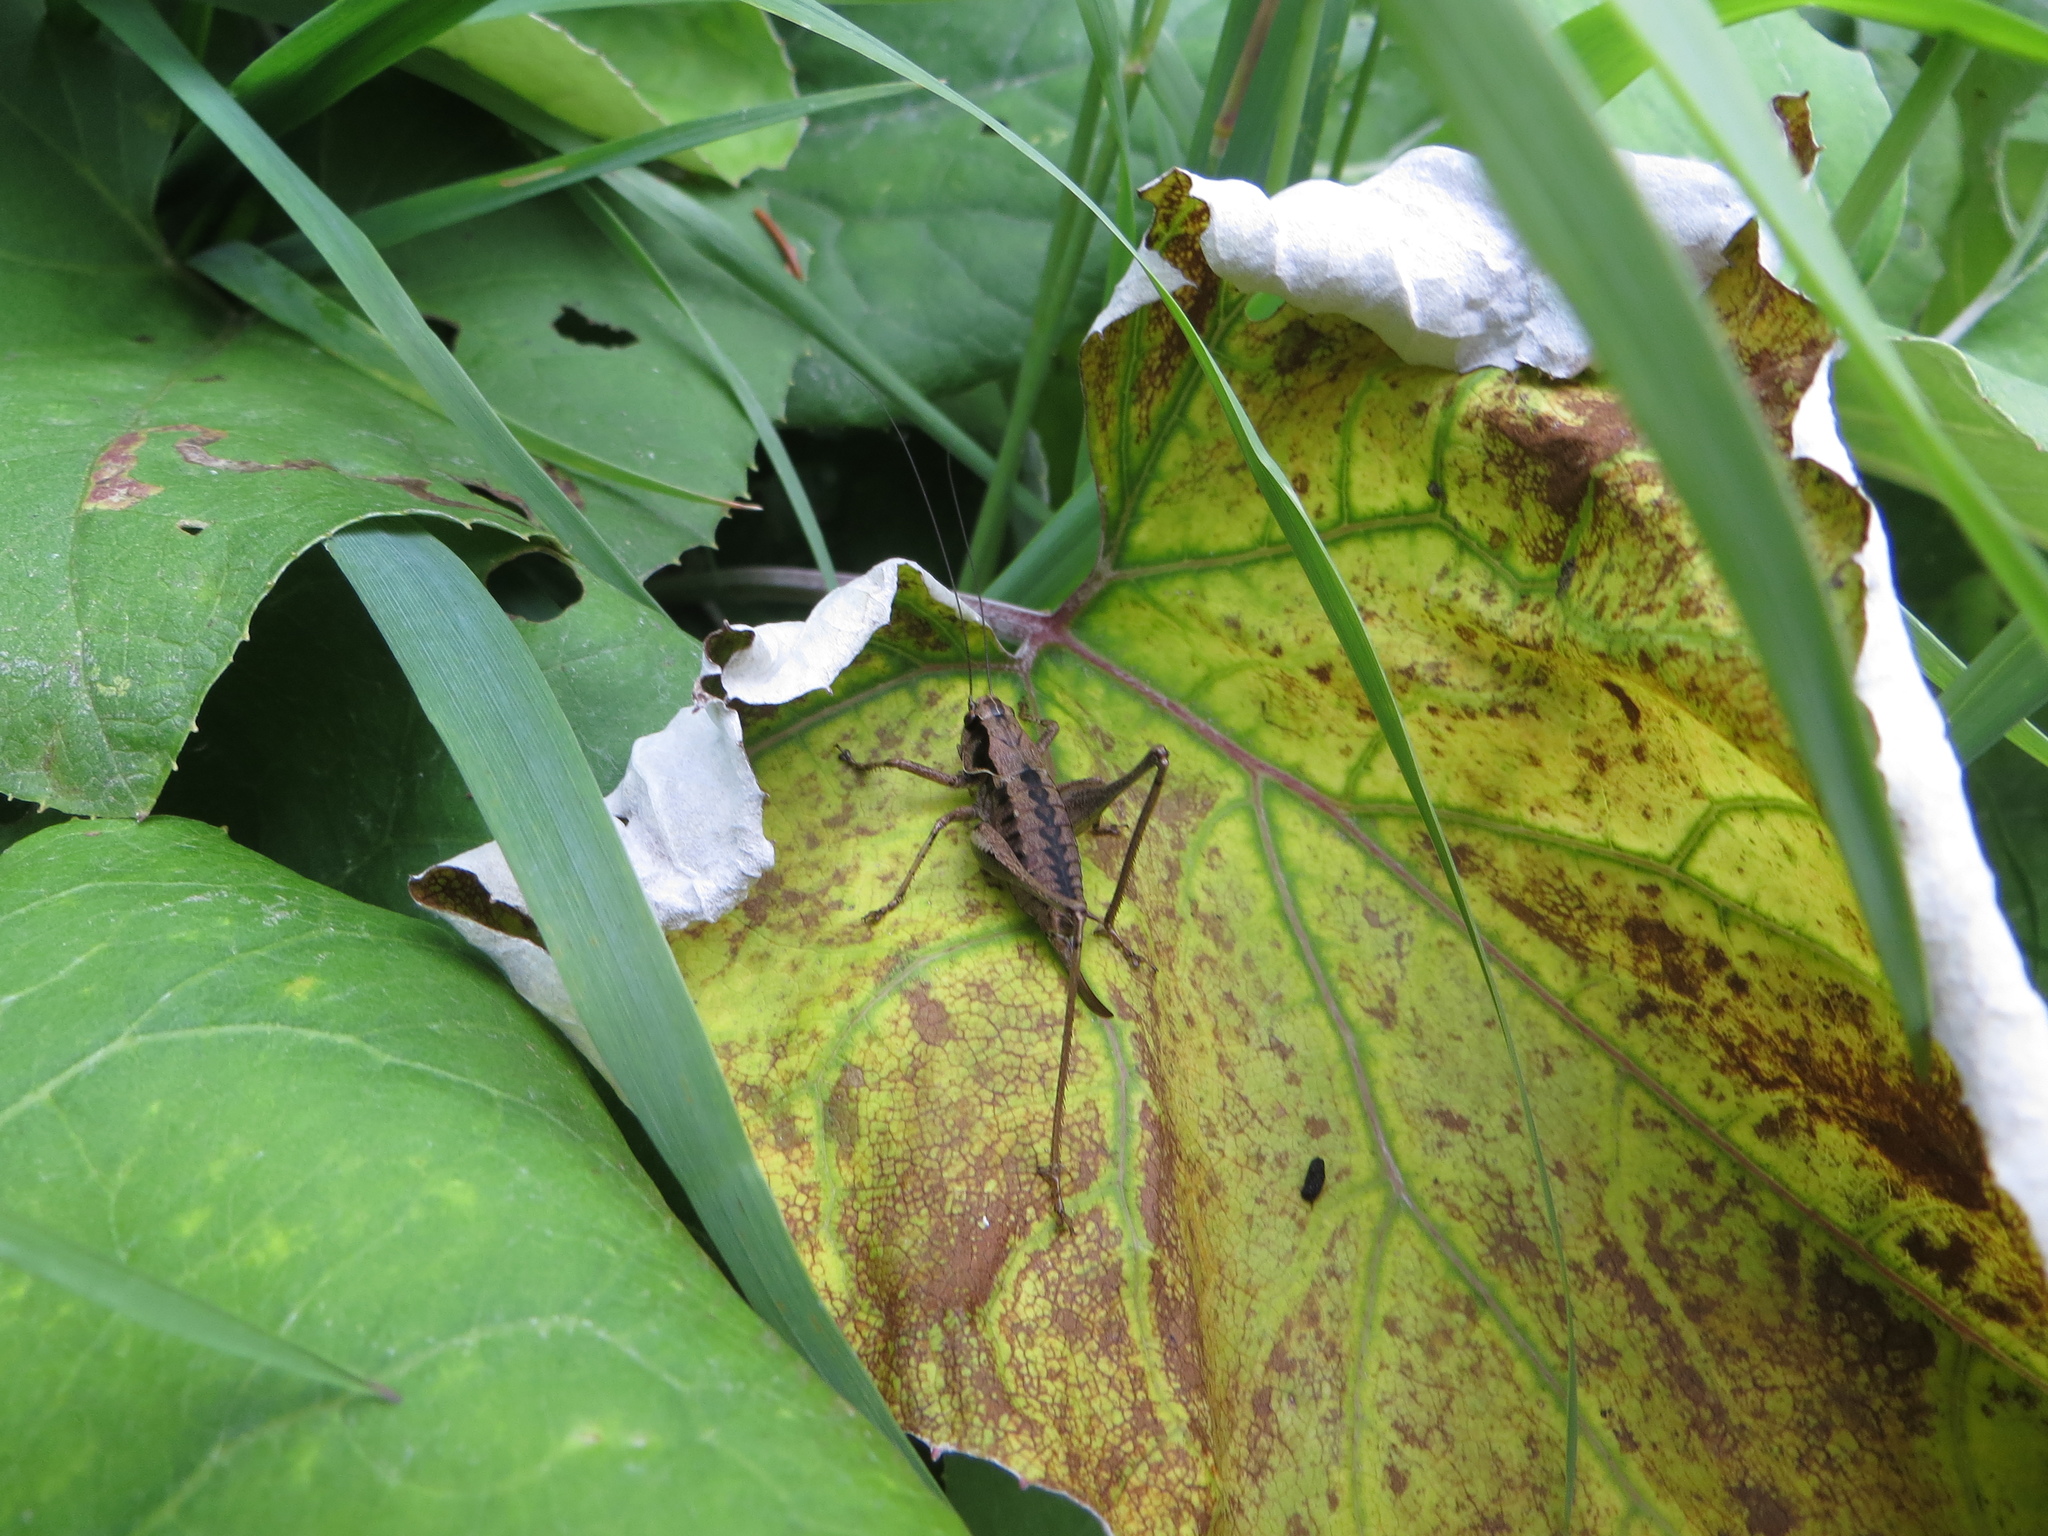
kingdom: Animalia
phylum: Arthropoda
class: Insecta
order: Orthoptera
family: Tettigoniidae
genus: Pholidoptera
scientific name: Pholidoptera griseoaptera
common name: Dark bush-cricket
